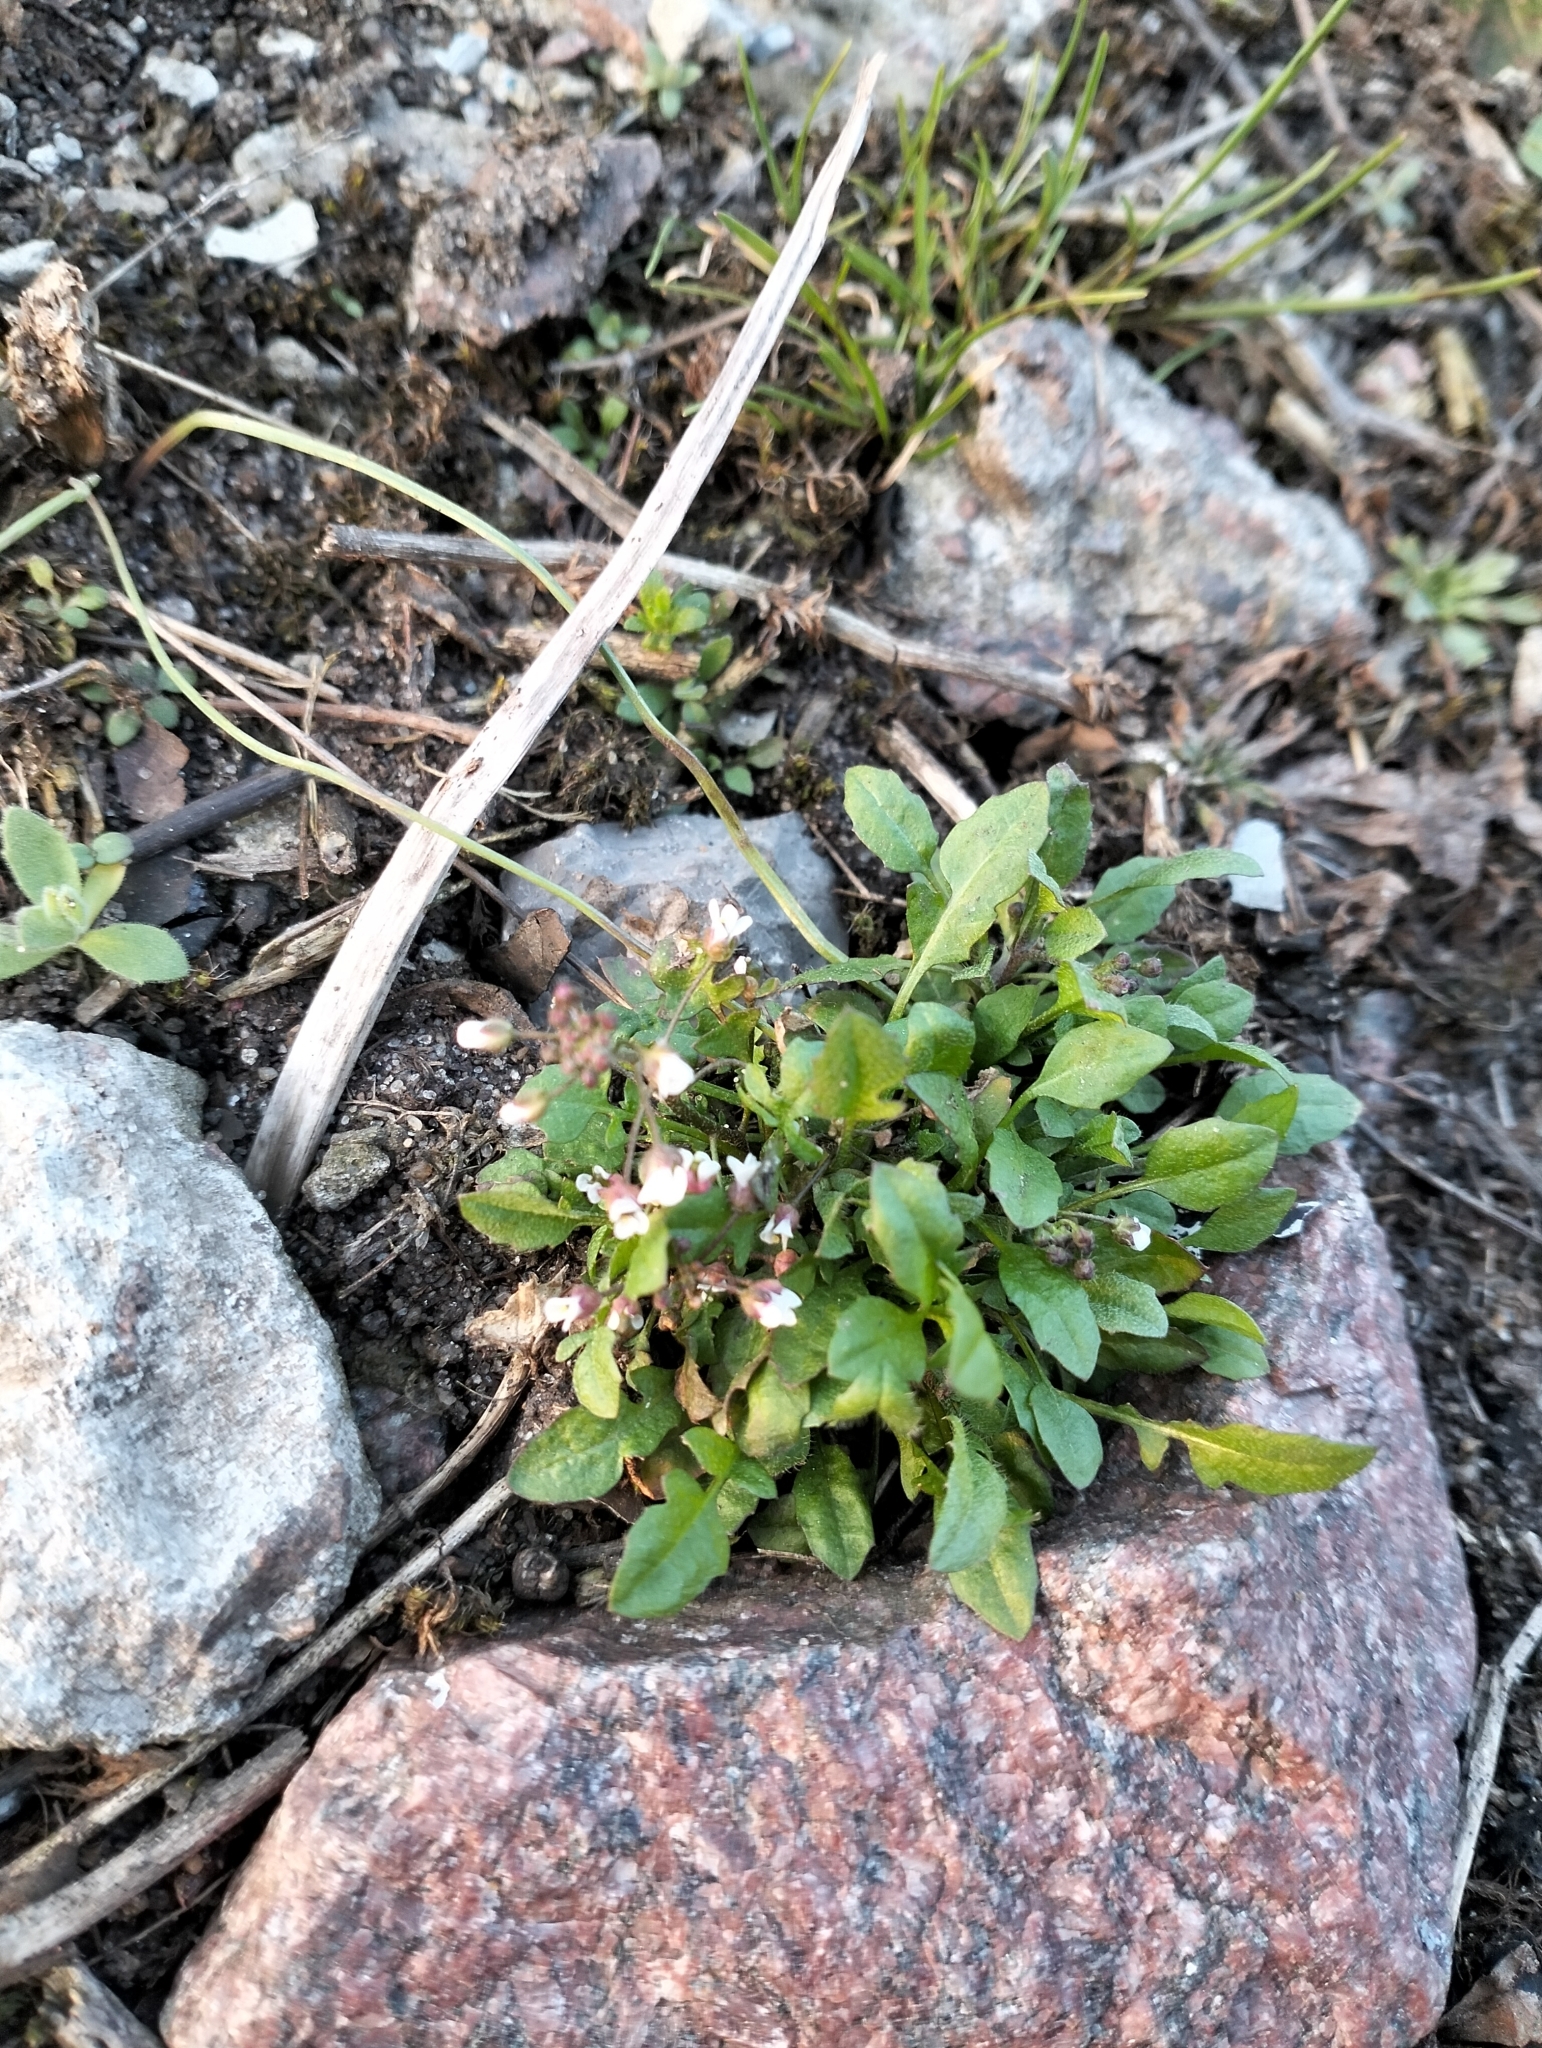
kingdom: Plantae
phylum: Tracheophyta
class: Magnoliopsida
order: Brassicales
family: Brassicaceae
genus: Capsella
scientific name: Capsella bursa-pastoris
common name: Shepherd's purse
